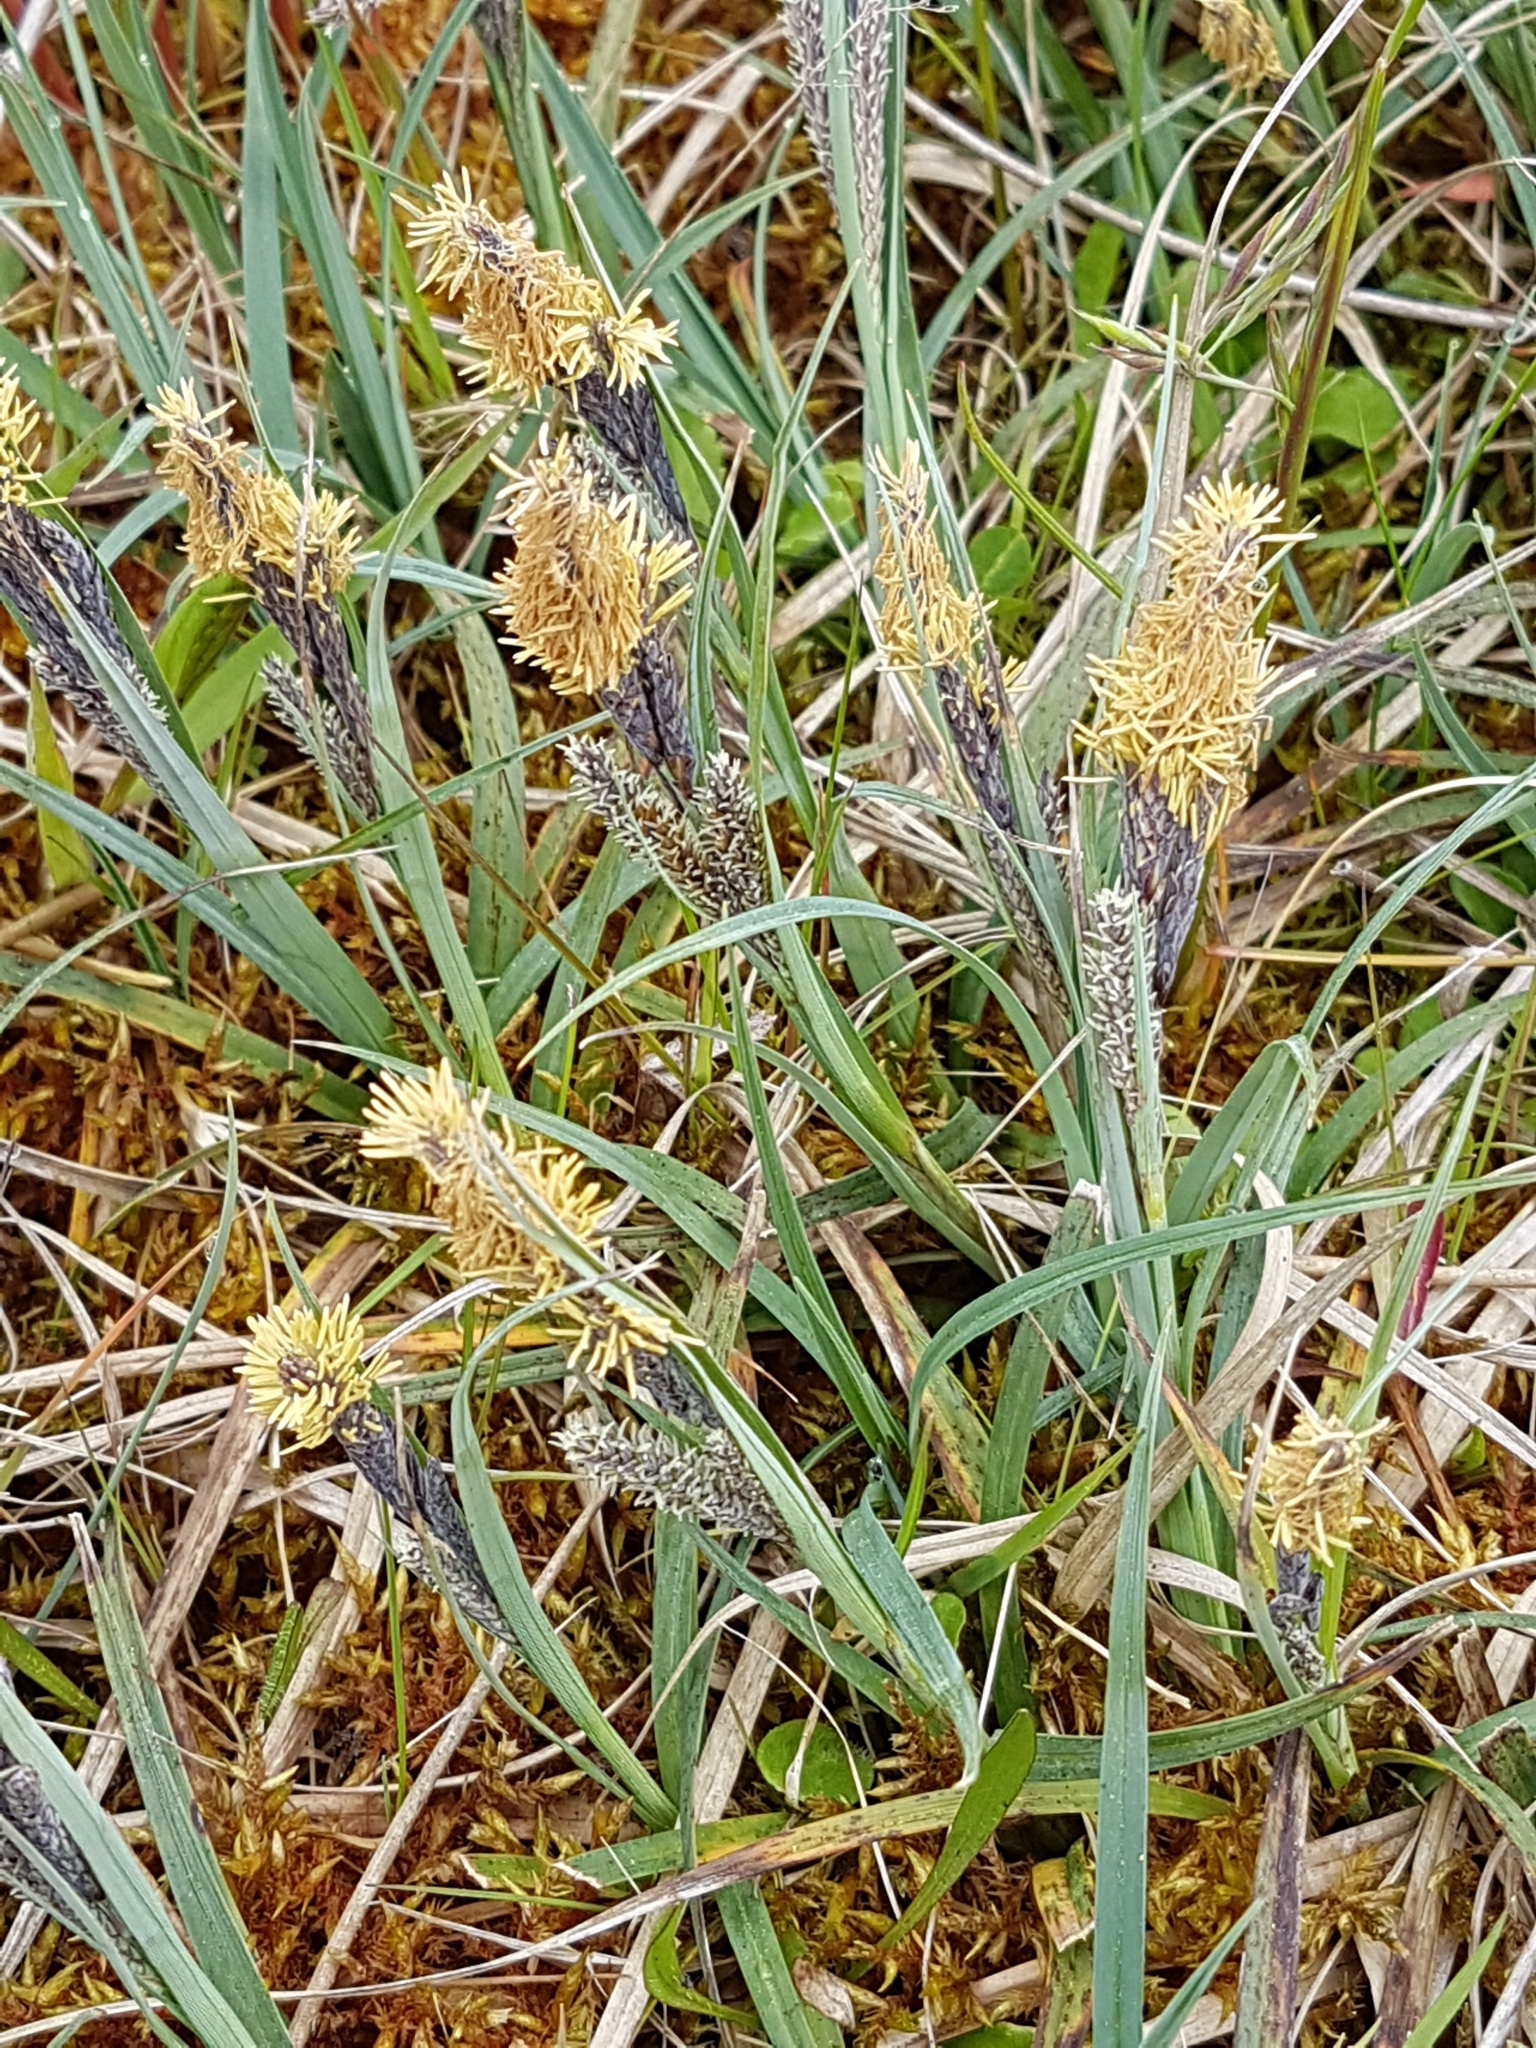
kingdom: Plantae
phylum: Tracheophyta
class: Liliopsida
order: Poales
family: Cyperaceae
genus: Carex
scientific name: Carex flacca
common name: Glaucous sedge
